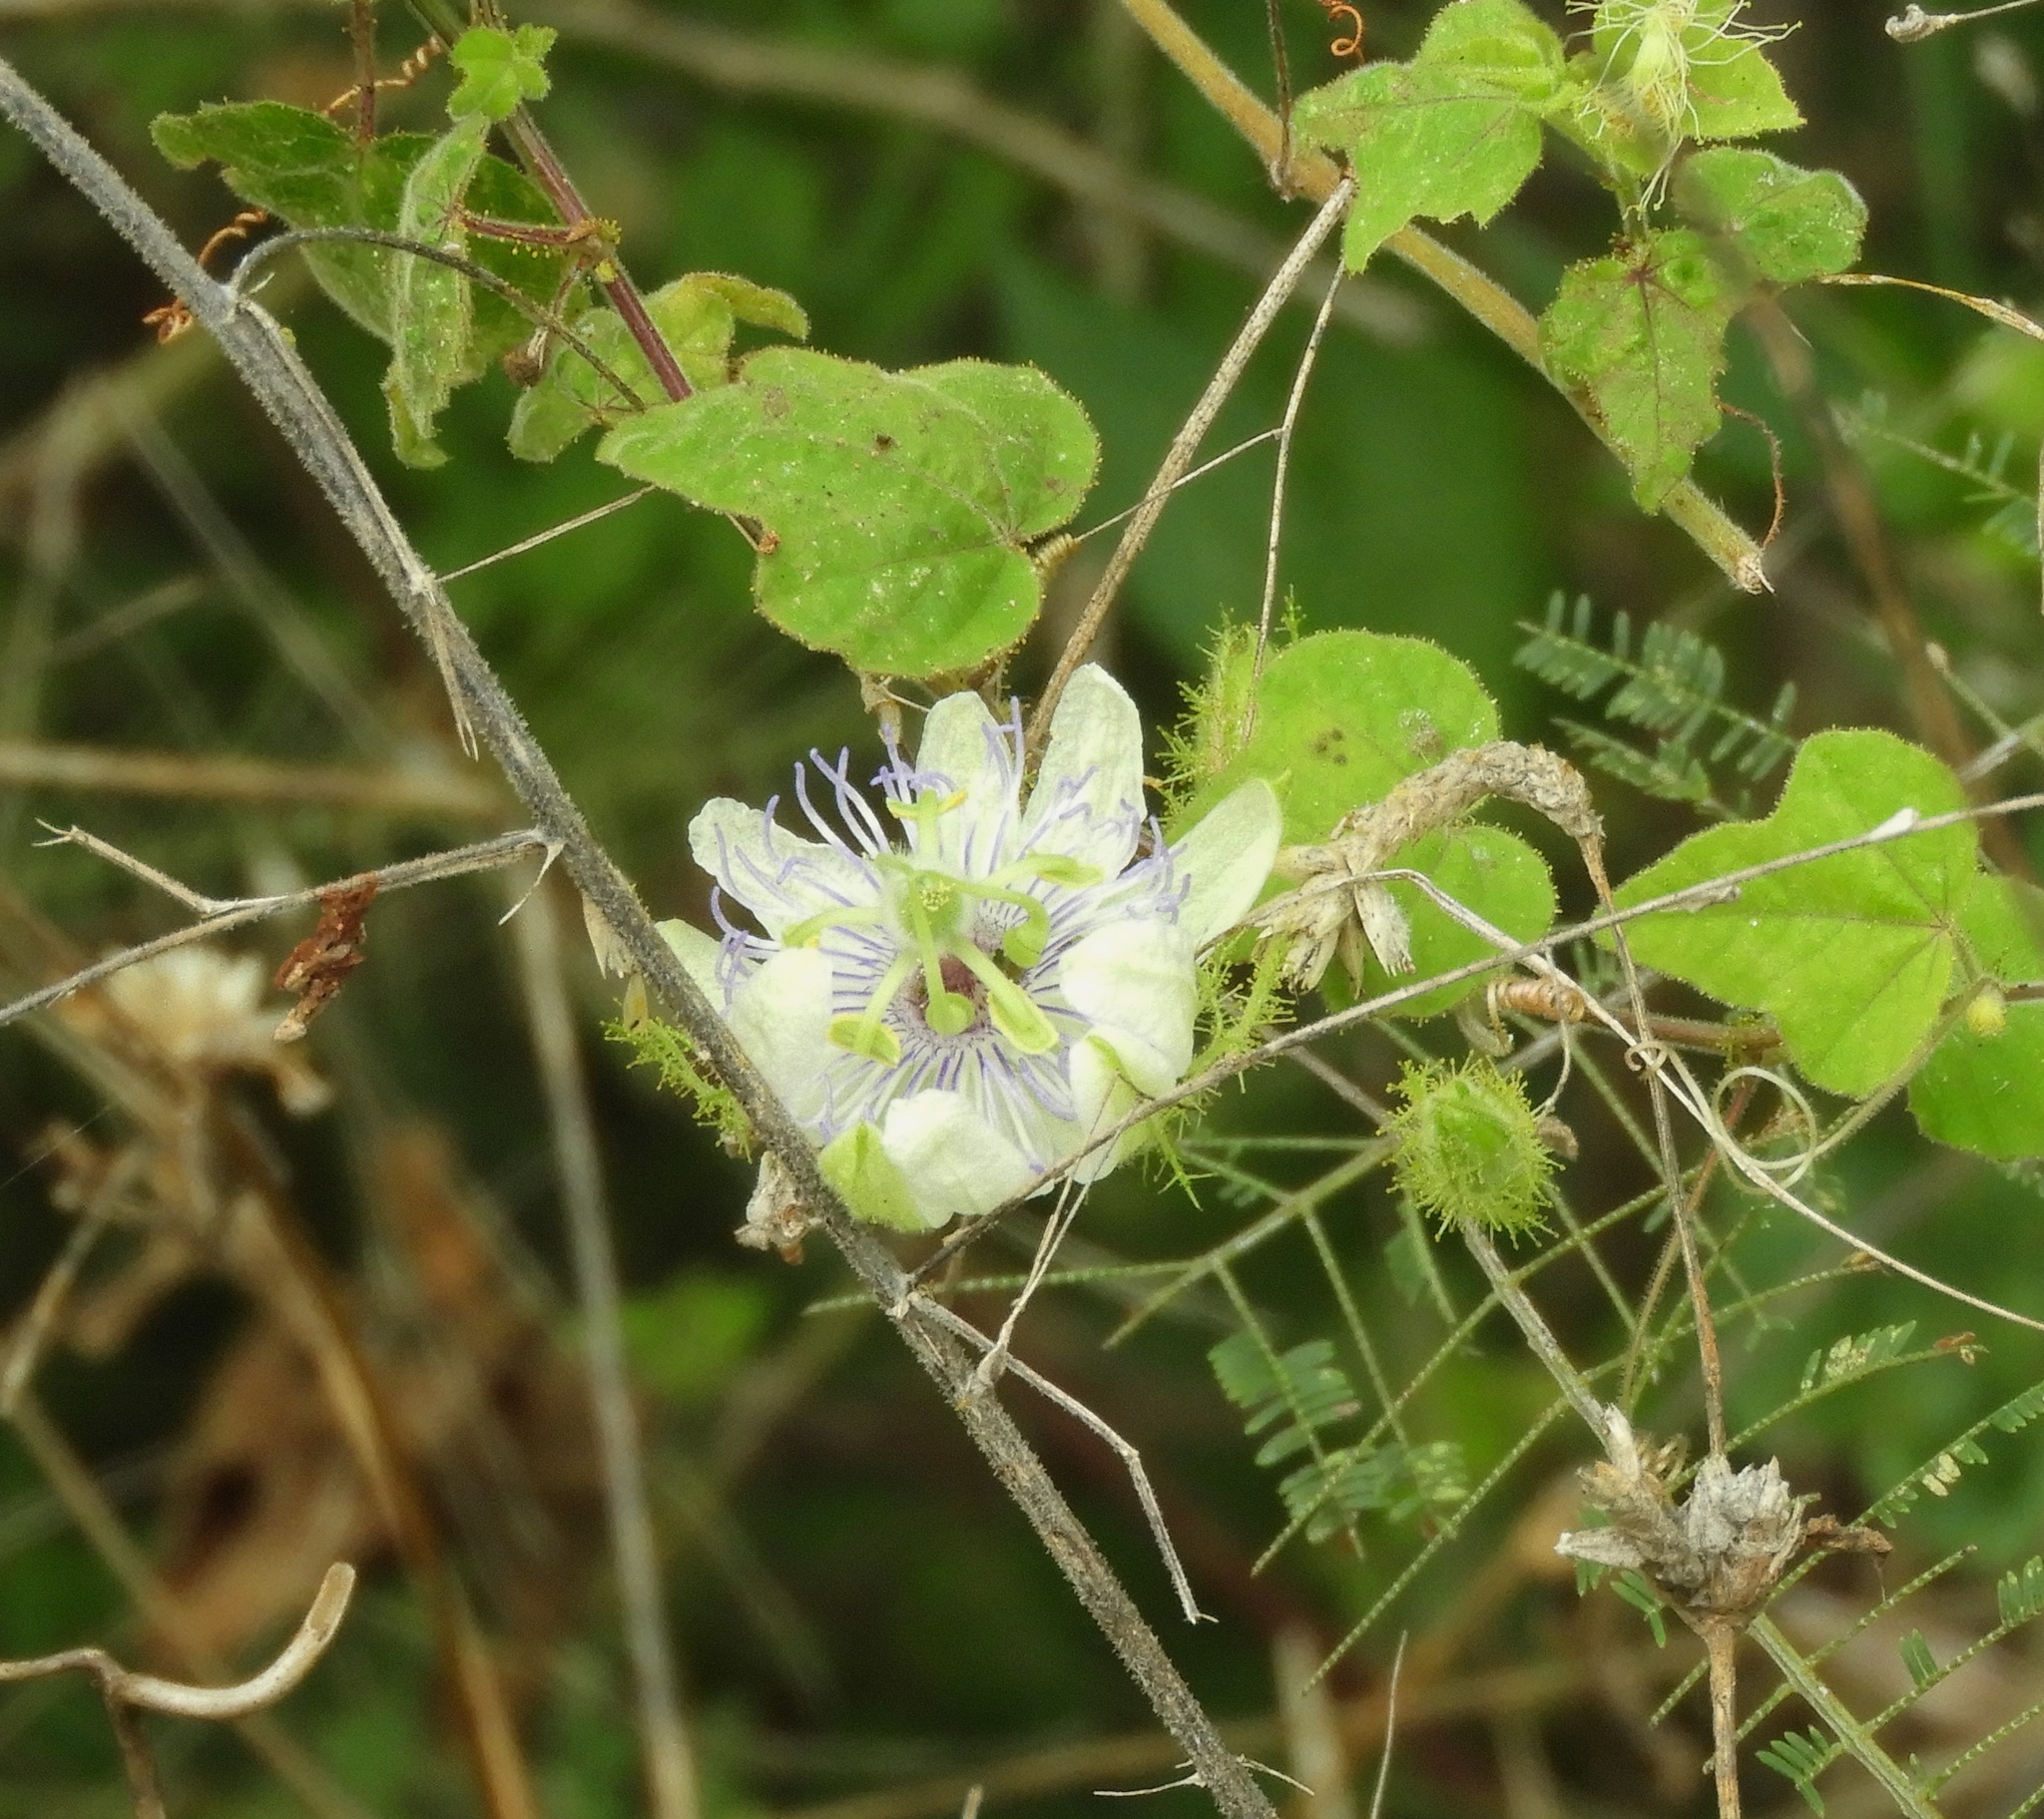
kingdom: Plantae
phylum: Tracheophyta
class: Magnoliopsida
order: Malpighiales
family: Passifloraceae
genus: Passiflora
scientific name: Passiflora foetida
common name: Fetid passionflower
